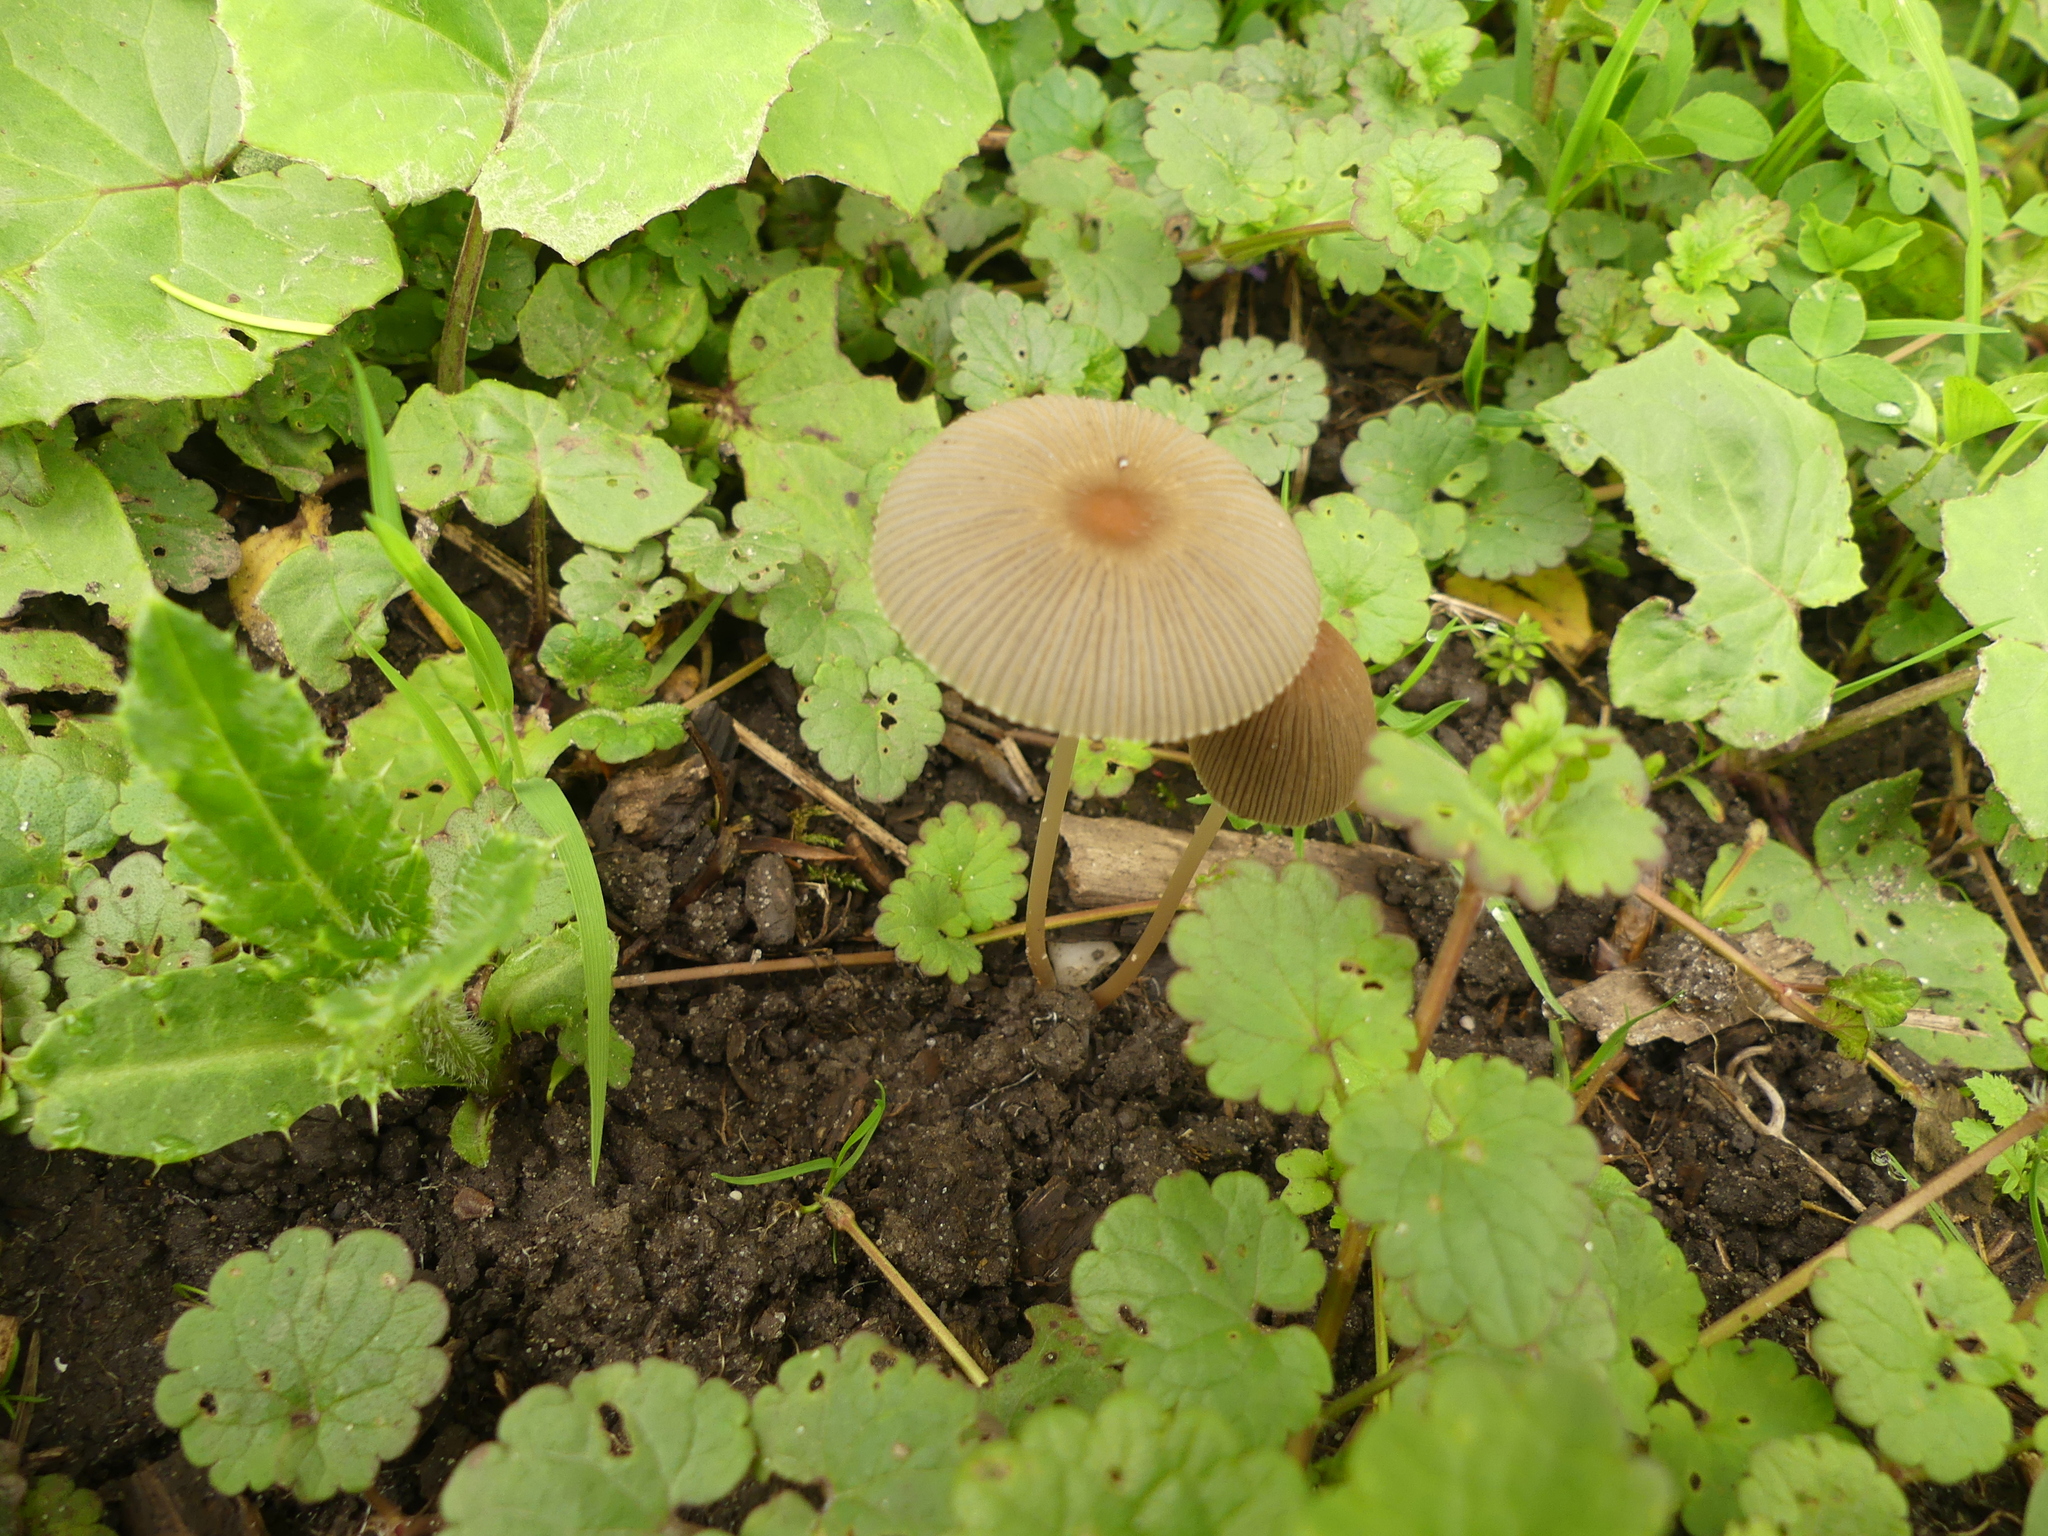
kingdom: Fungi
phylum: Basidiomycota
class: Agaricomycetes
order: Agaricales
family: Psathyrellaceae
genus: Parasola
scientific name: Parasola
